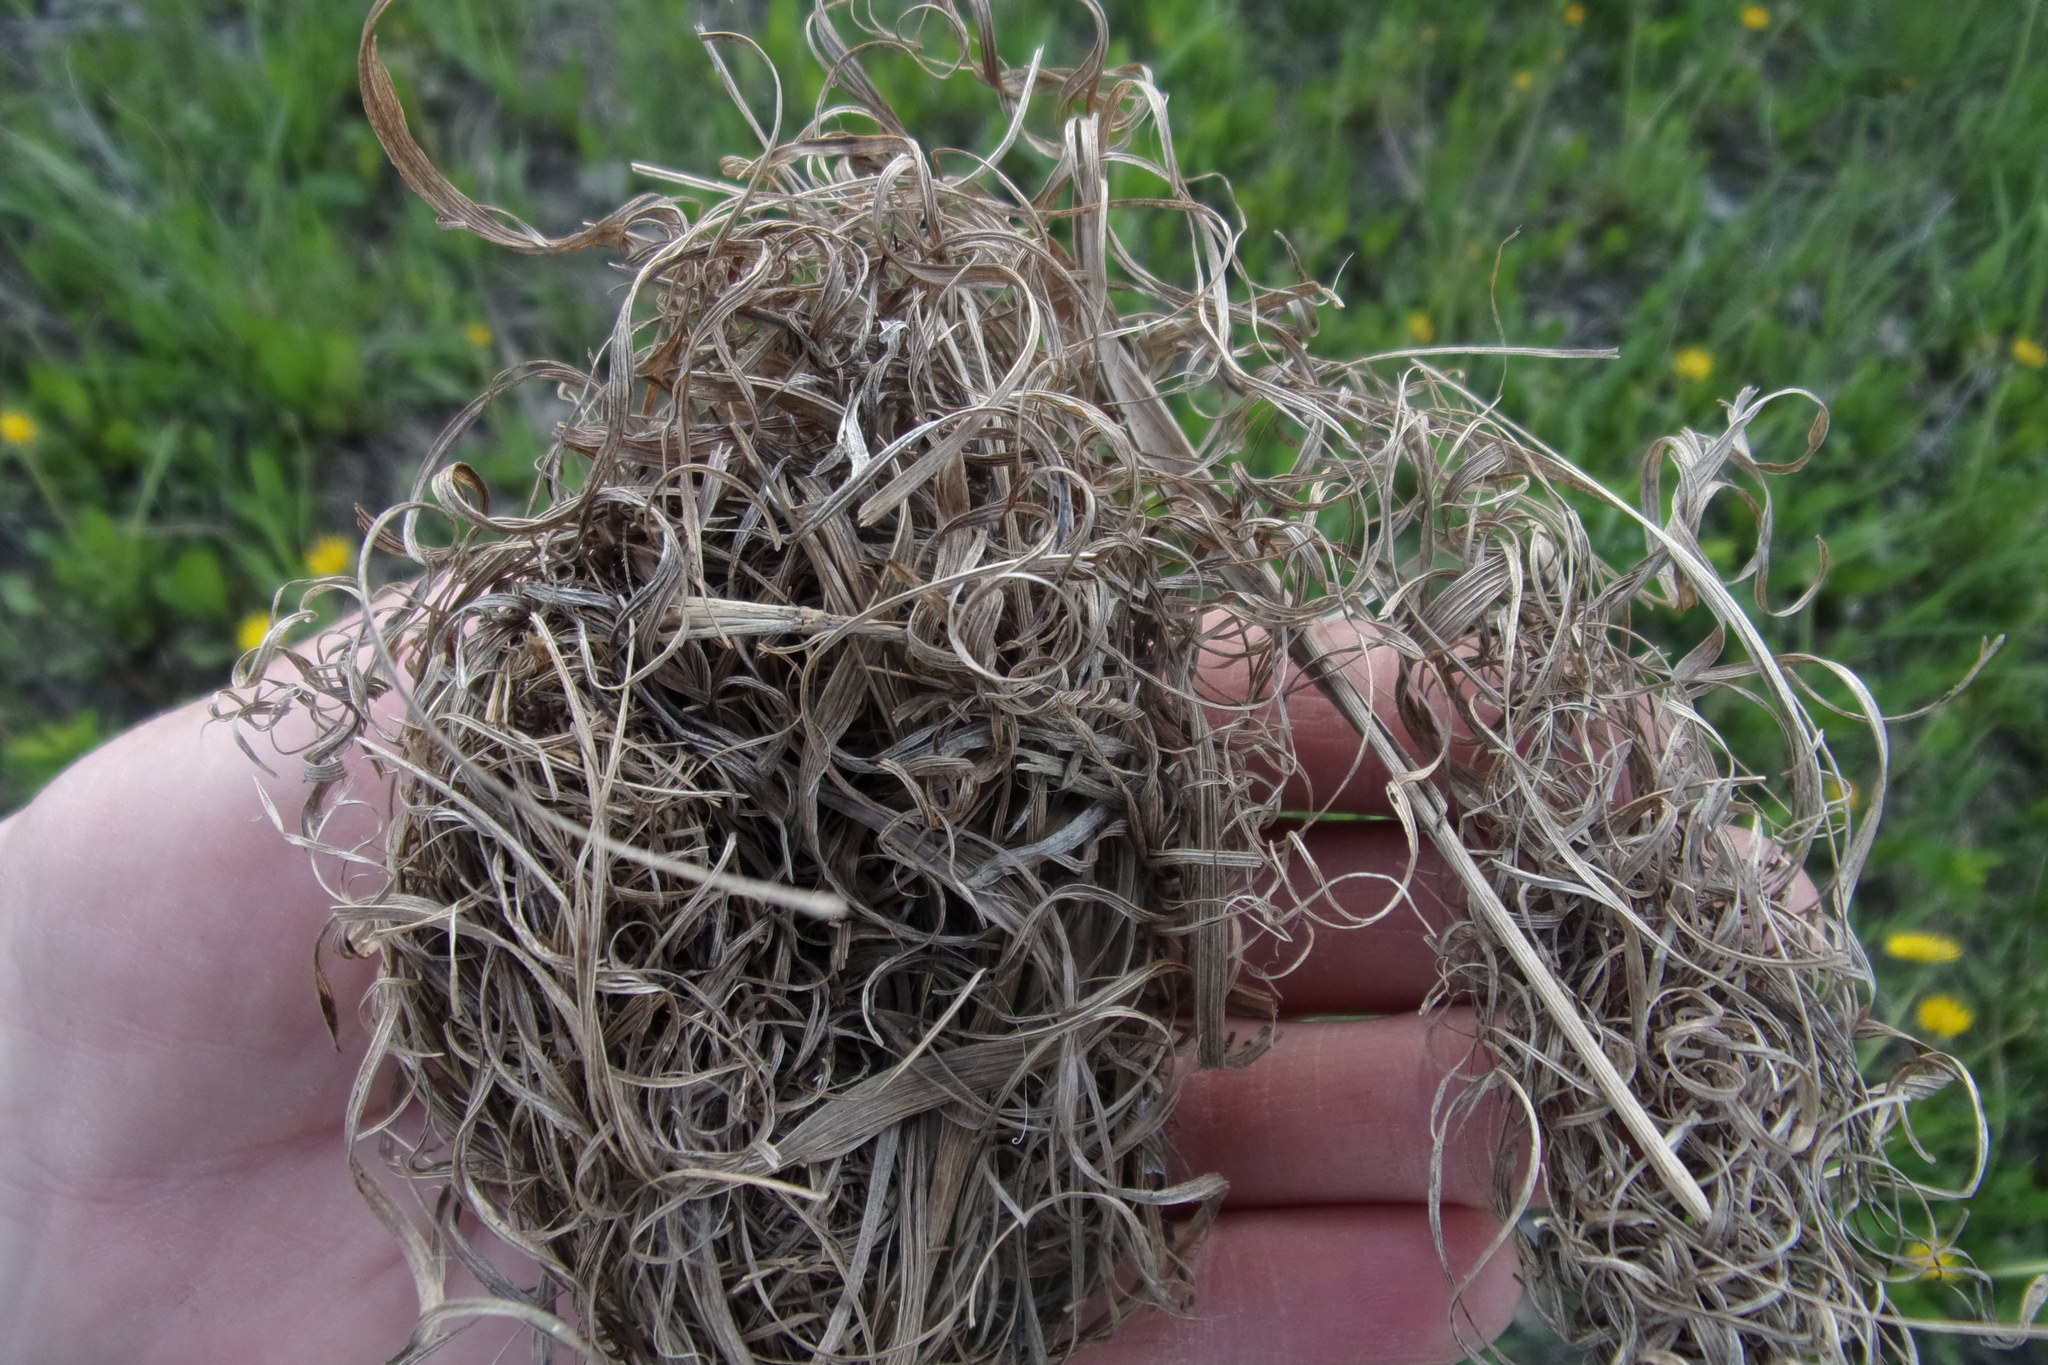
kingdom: Animalia
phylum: Chordata
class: Mammalia
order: Rodentia
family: Muridae
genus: Micromys
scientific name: Micromys minutus
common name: Harvest mouse
